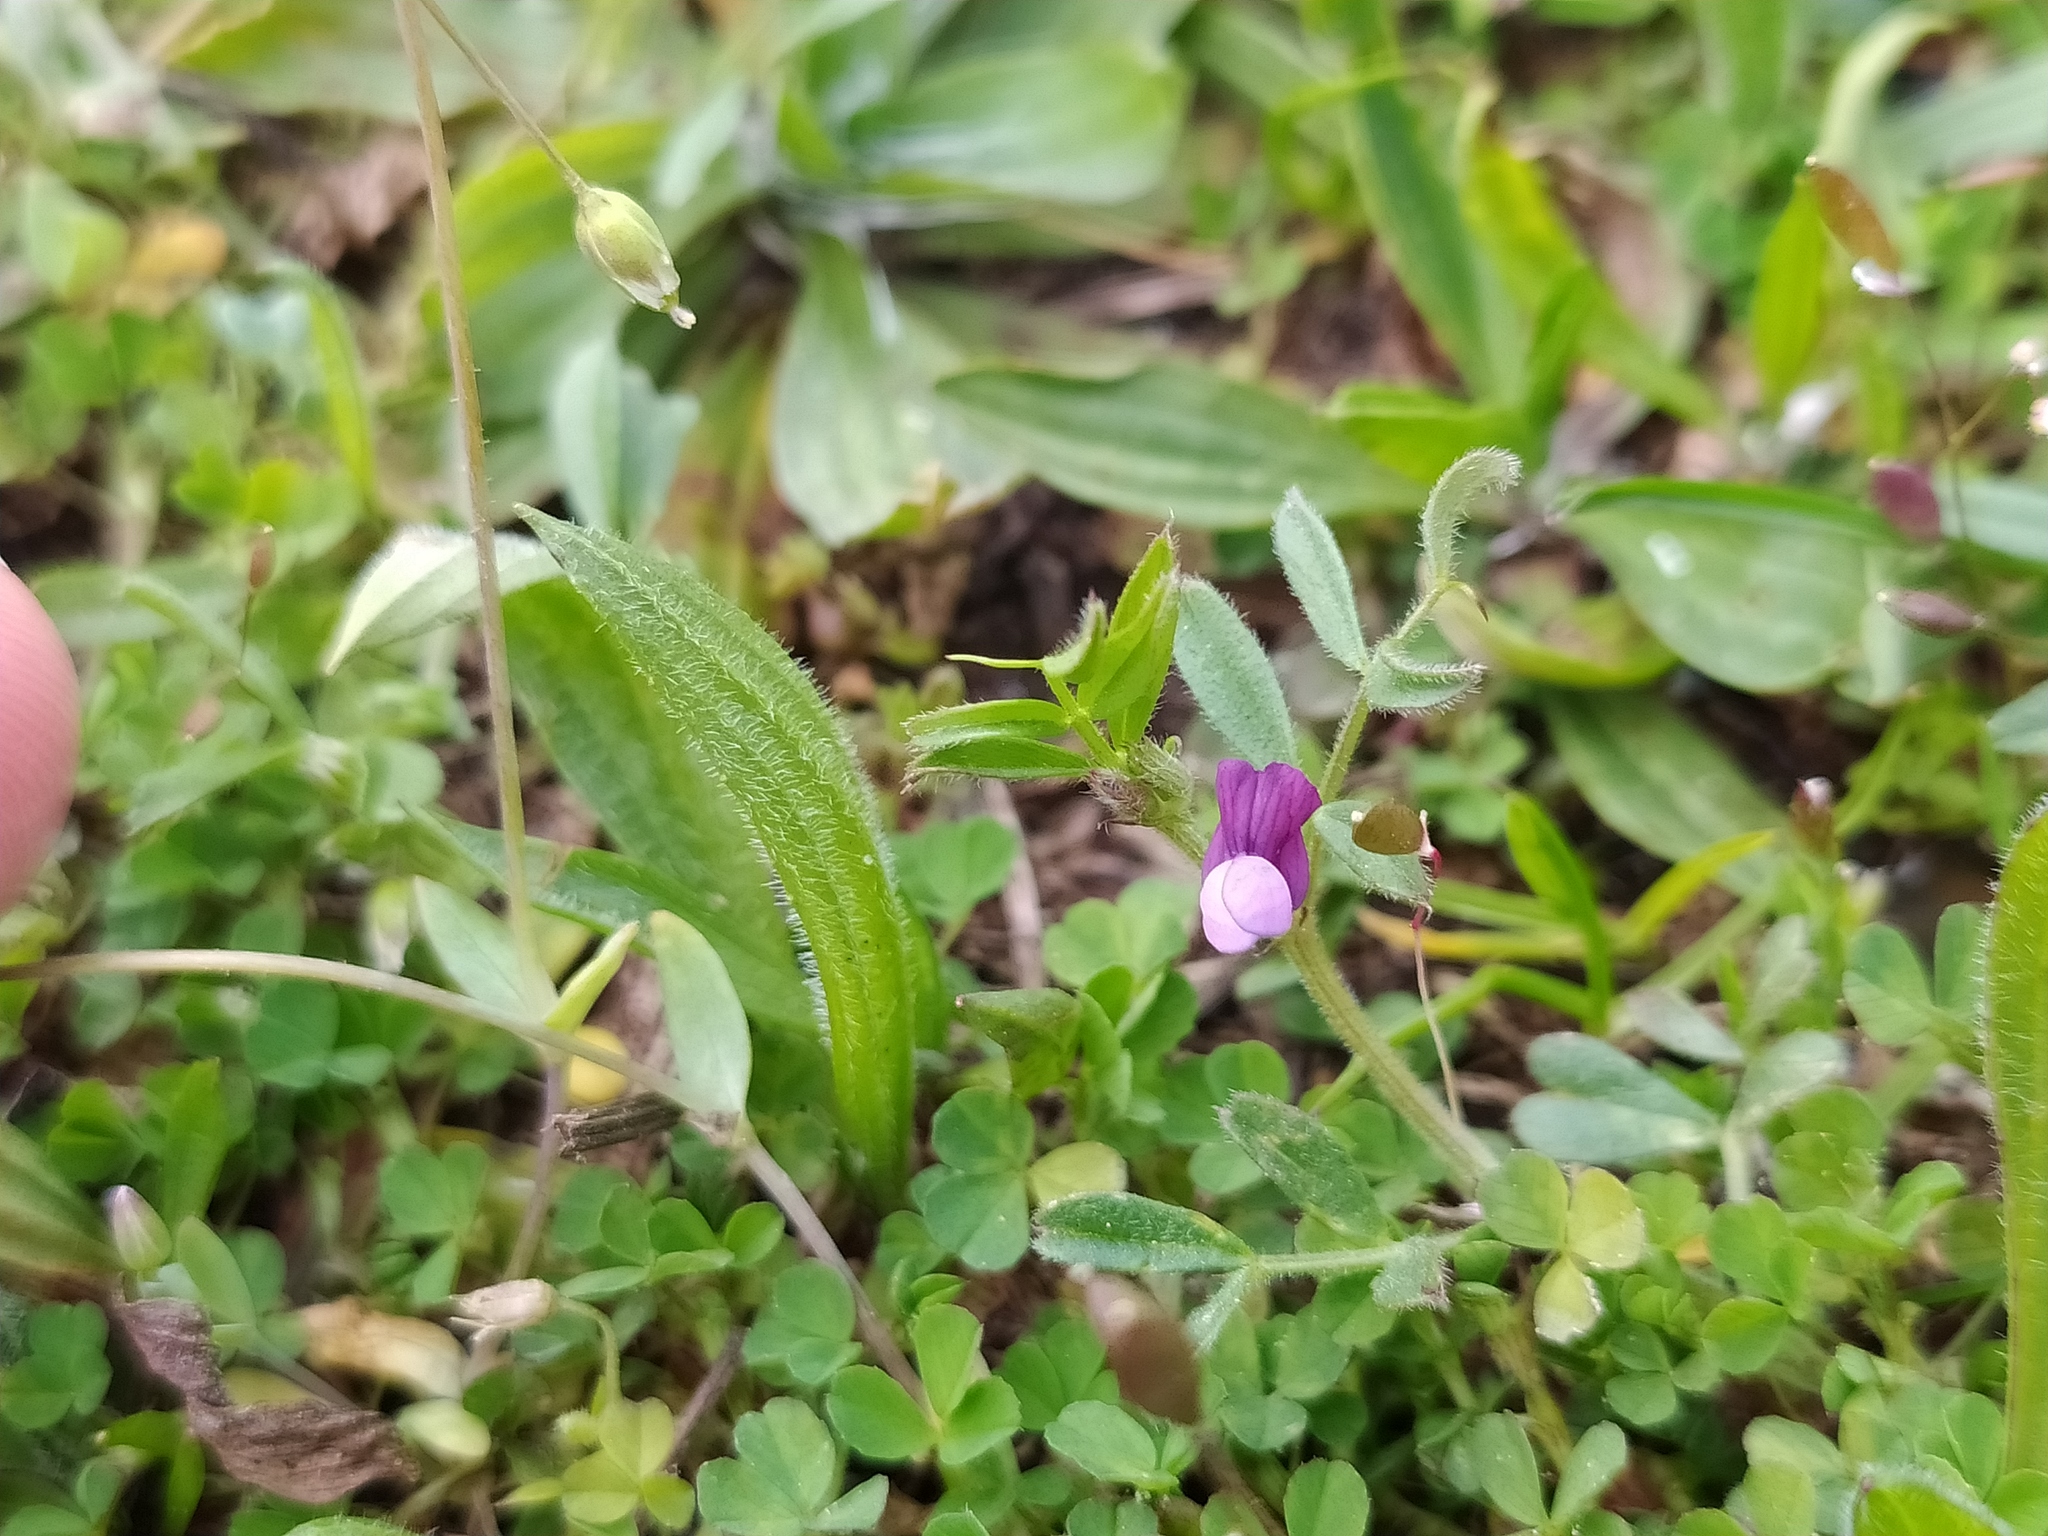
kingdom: Plantae
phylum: Tracheophyta
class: Magnoliopsida
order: Fabales
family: Fabaceae
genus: Vicia
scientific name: Vicia lathyroides
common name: Spring vetch
